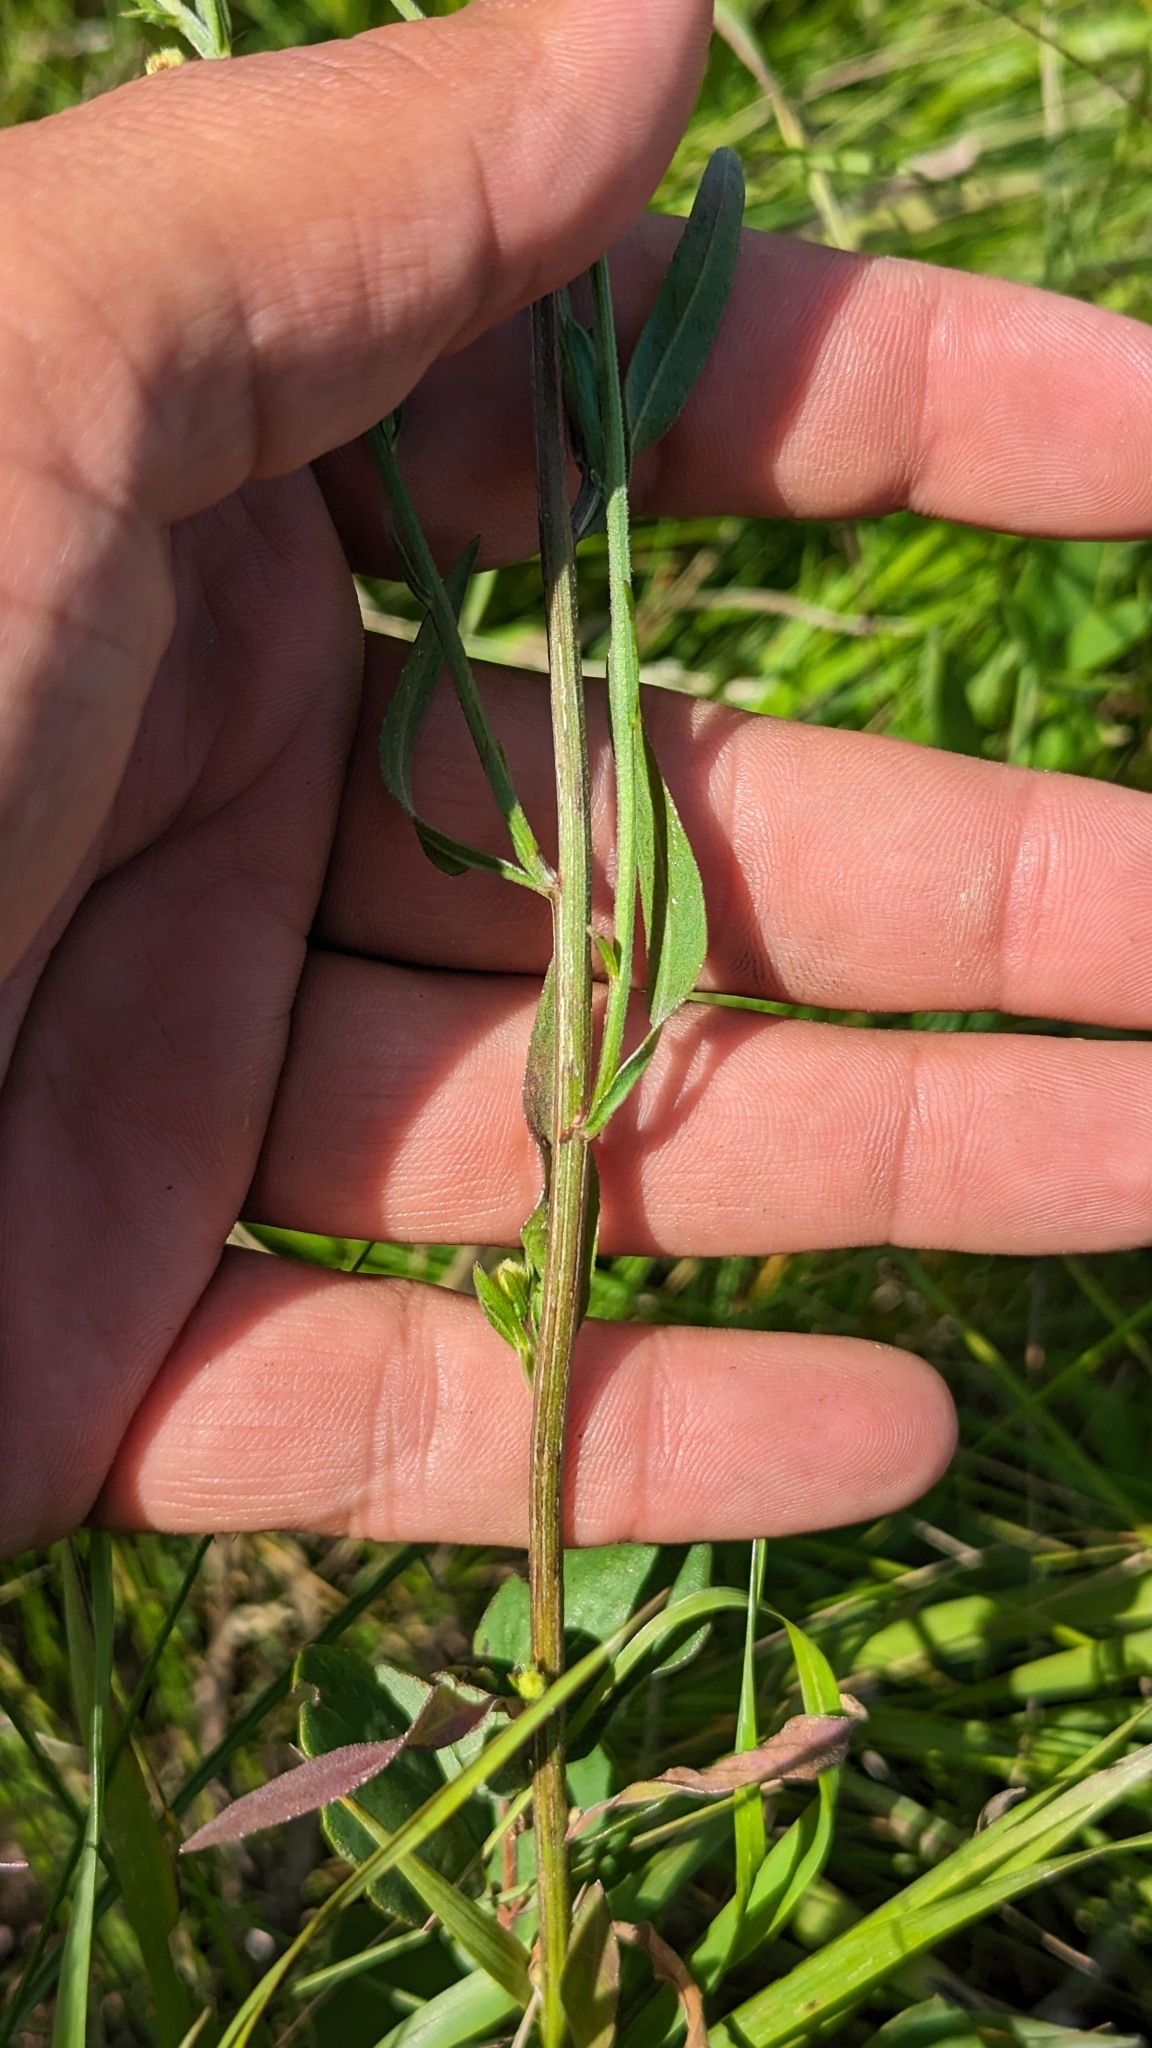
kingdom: Plantae
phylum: Tracheophyta
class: Magnoliopsida
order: Asterales
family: Asteraceae
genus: Erigeron
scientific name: Erigeron strigosus
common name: Common eastern fleabane
